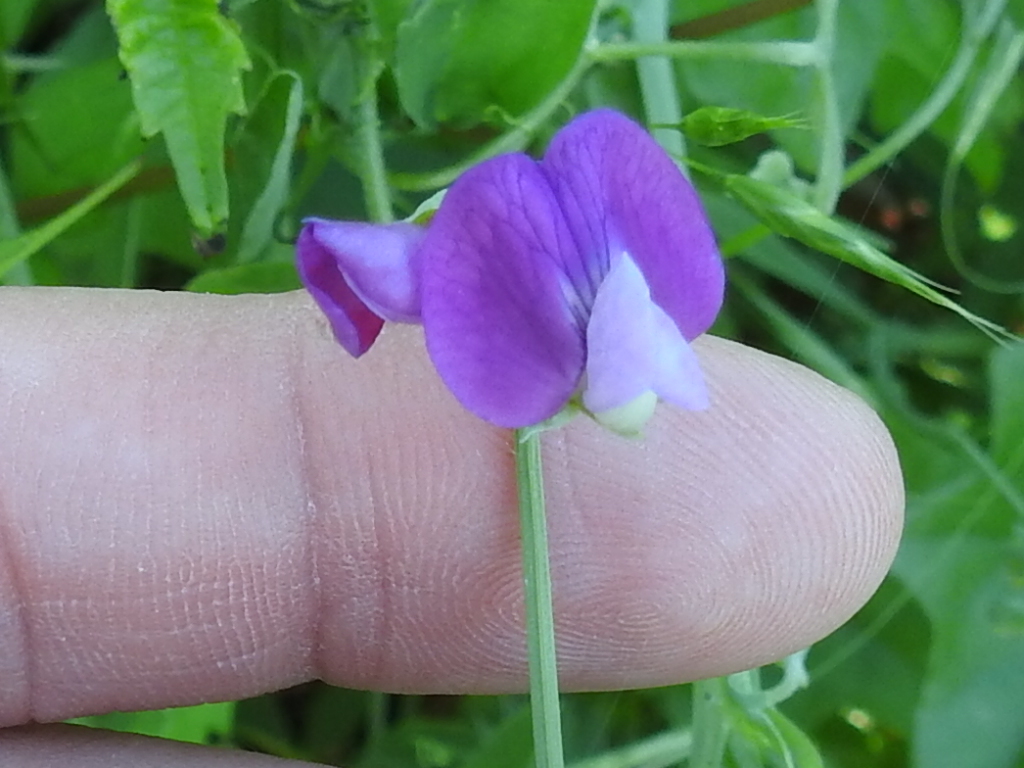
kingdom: Plantae
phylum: Tracheophyta
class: Magnoliopsida
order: Fabales
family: Fabaceae
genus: Lathyrus
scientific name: Lathyrus hirsutus
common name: Hairy vetchling
